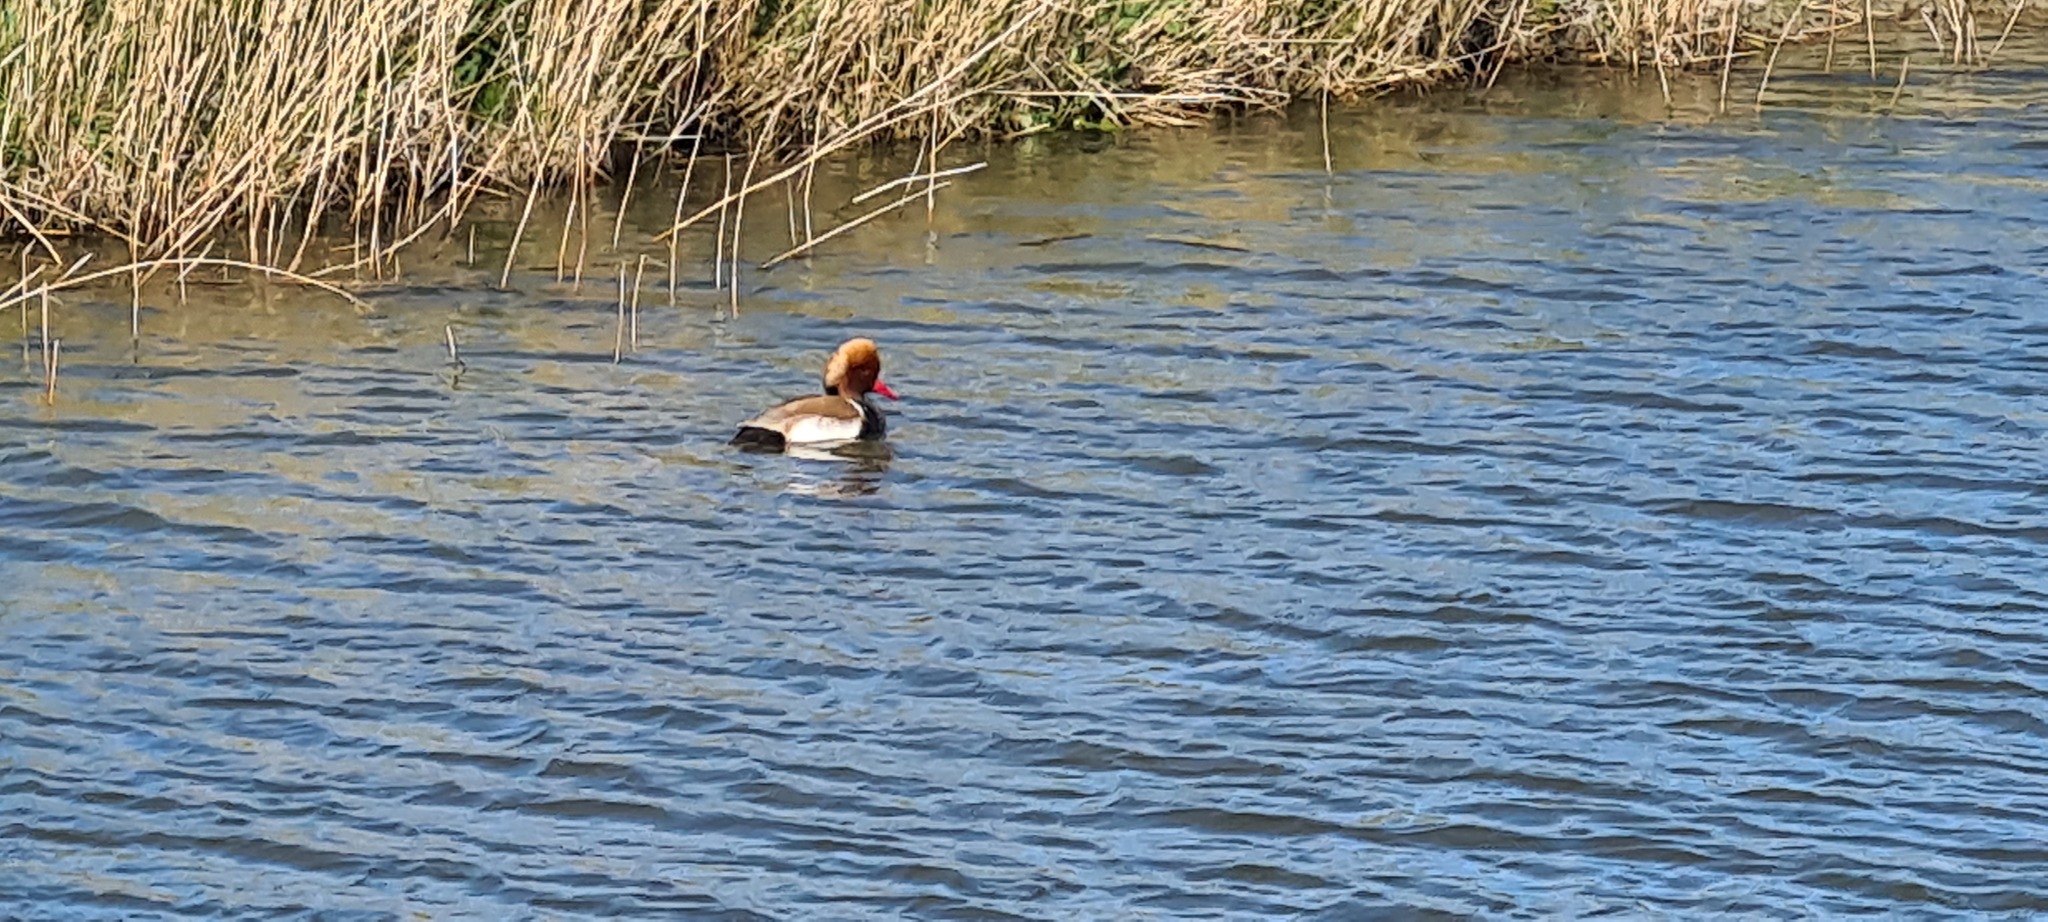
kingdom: Animalia
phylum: Chordata
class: Aves
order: Anseriformes
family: Anatidae
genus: Netta
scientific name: Netta rufina
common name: Red-crested pochard
